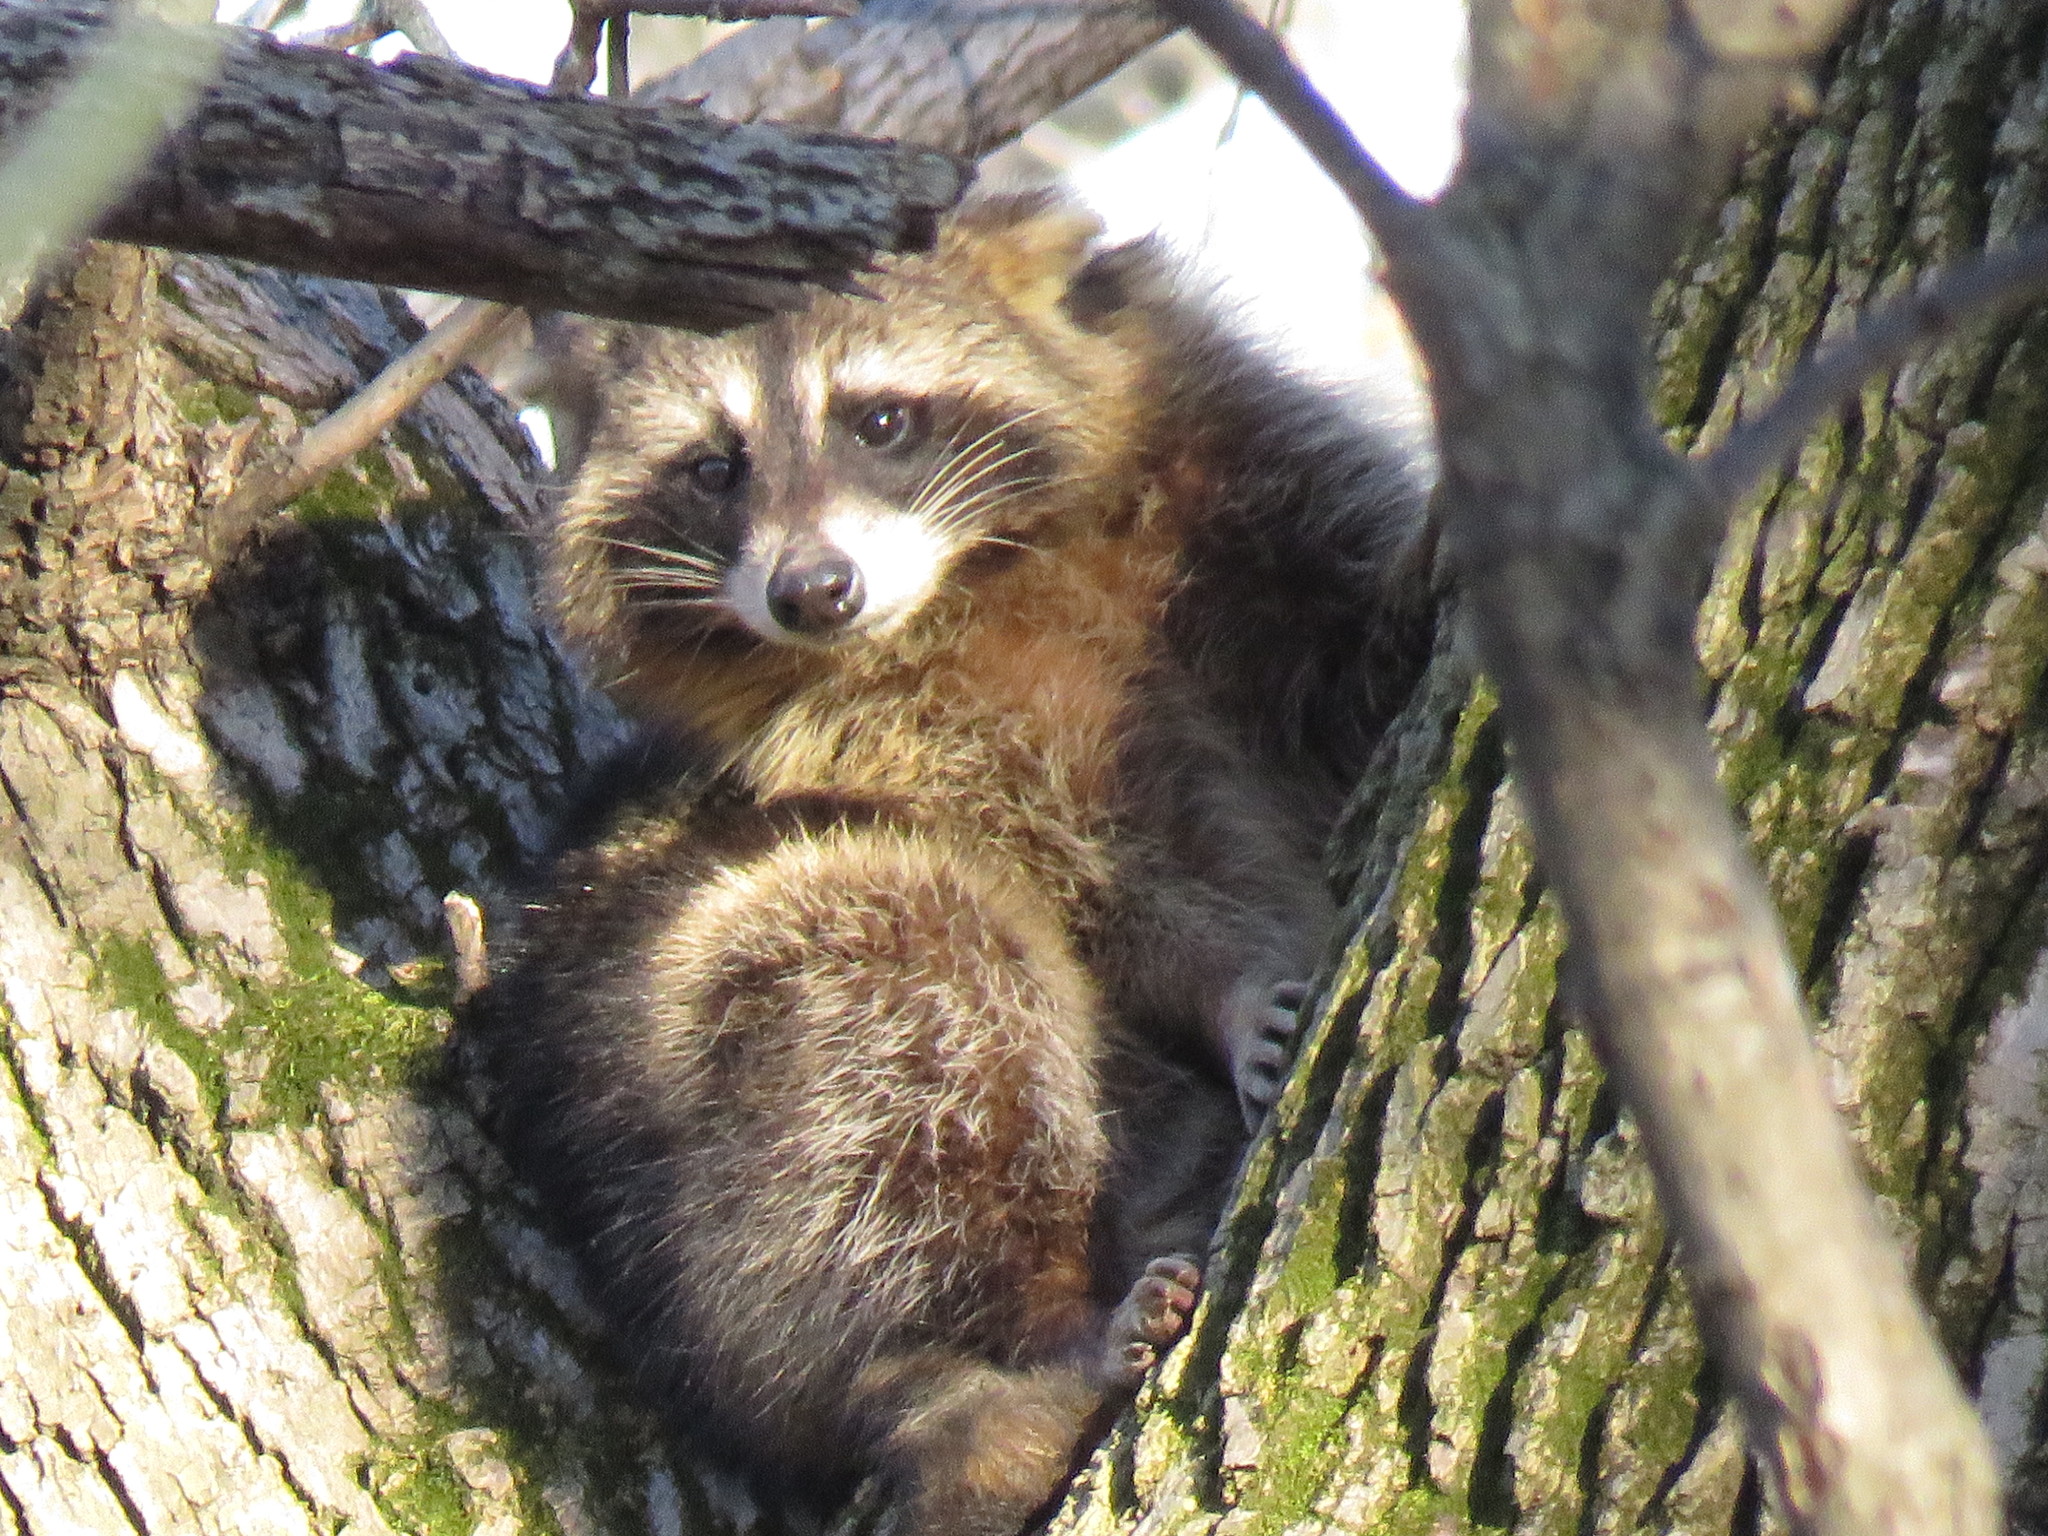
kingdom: Animalia
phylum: Chordata
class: Mammalia
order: Carnivora
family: Procyonidae
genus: Procyon
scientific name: Procyon lotor
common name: Raccoon
